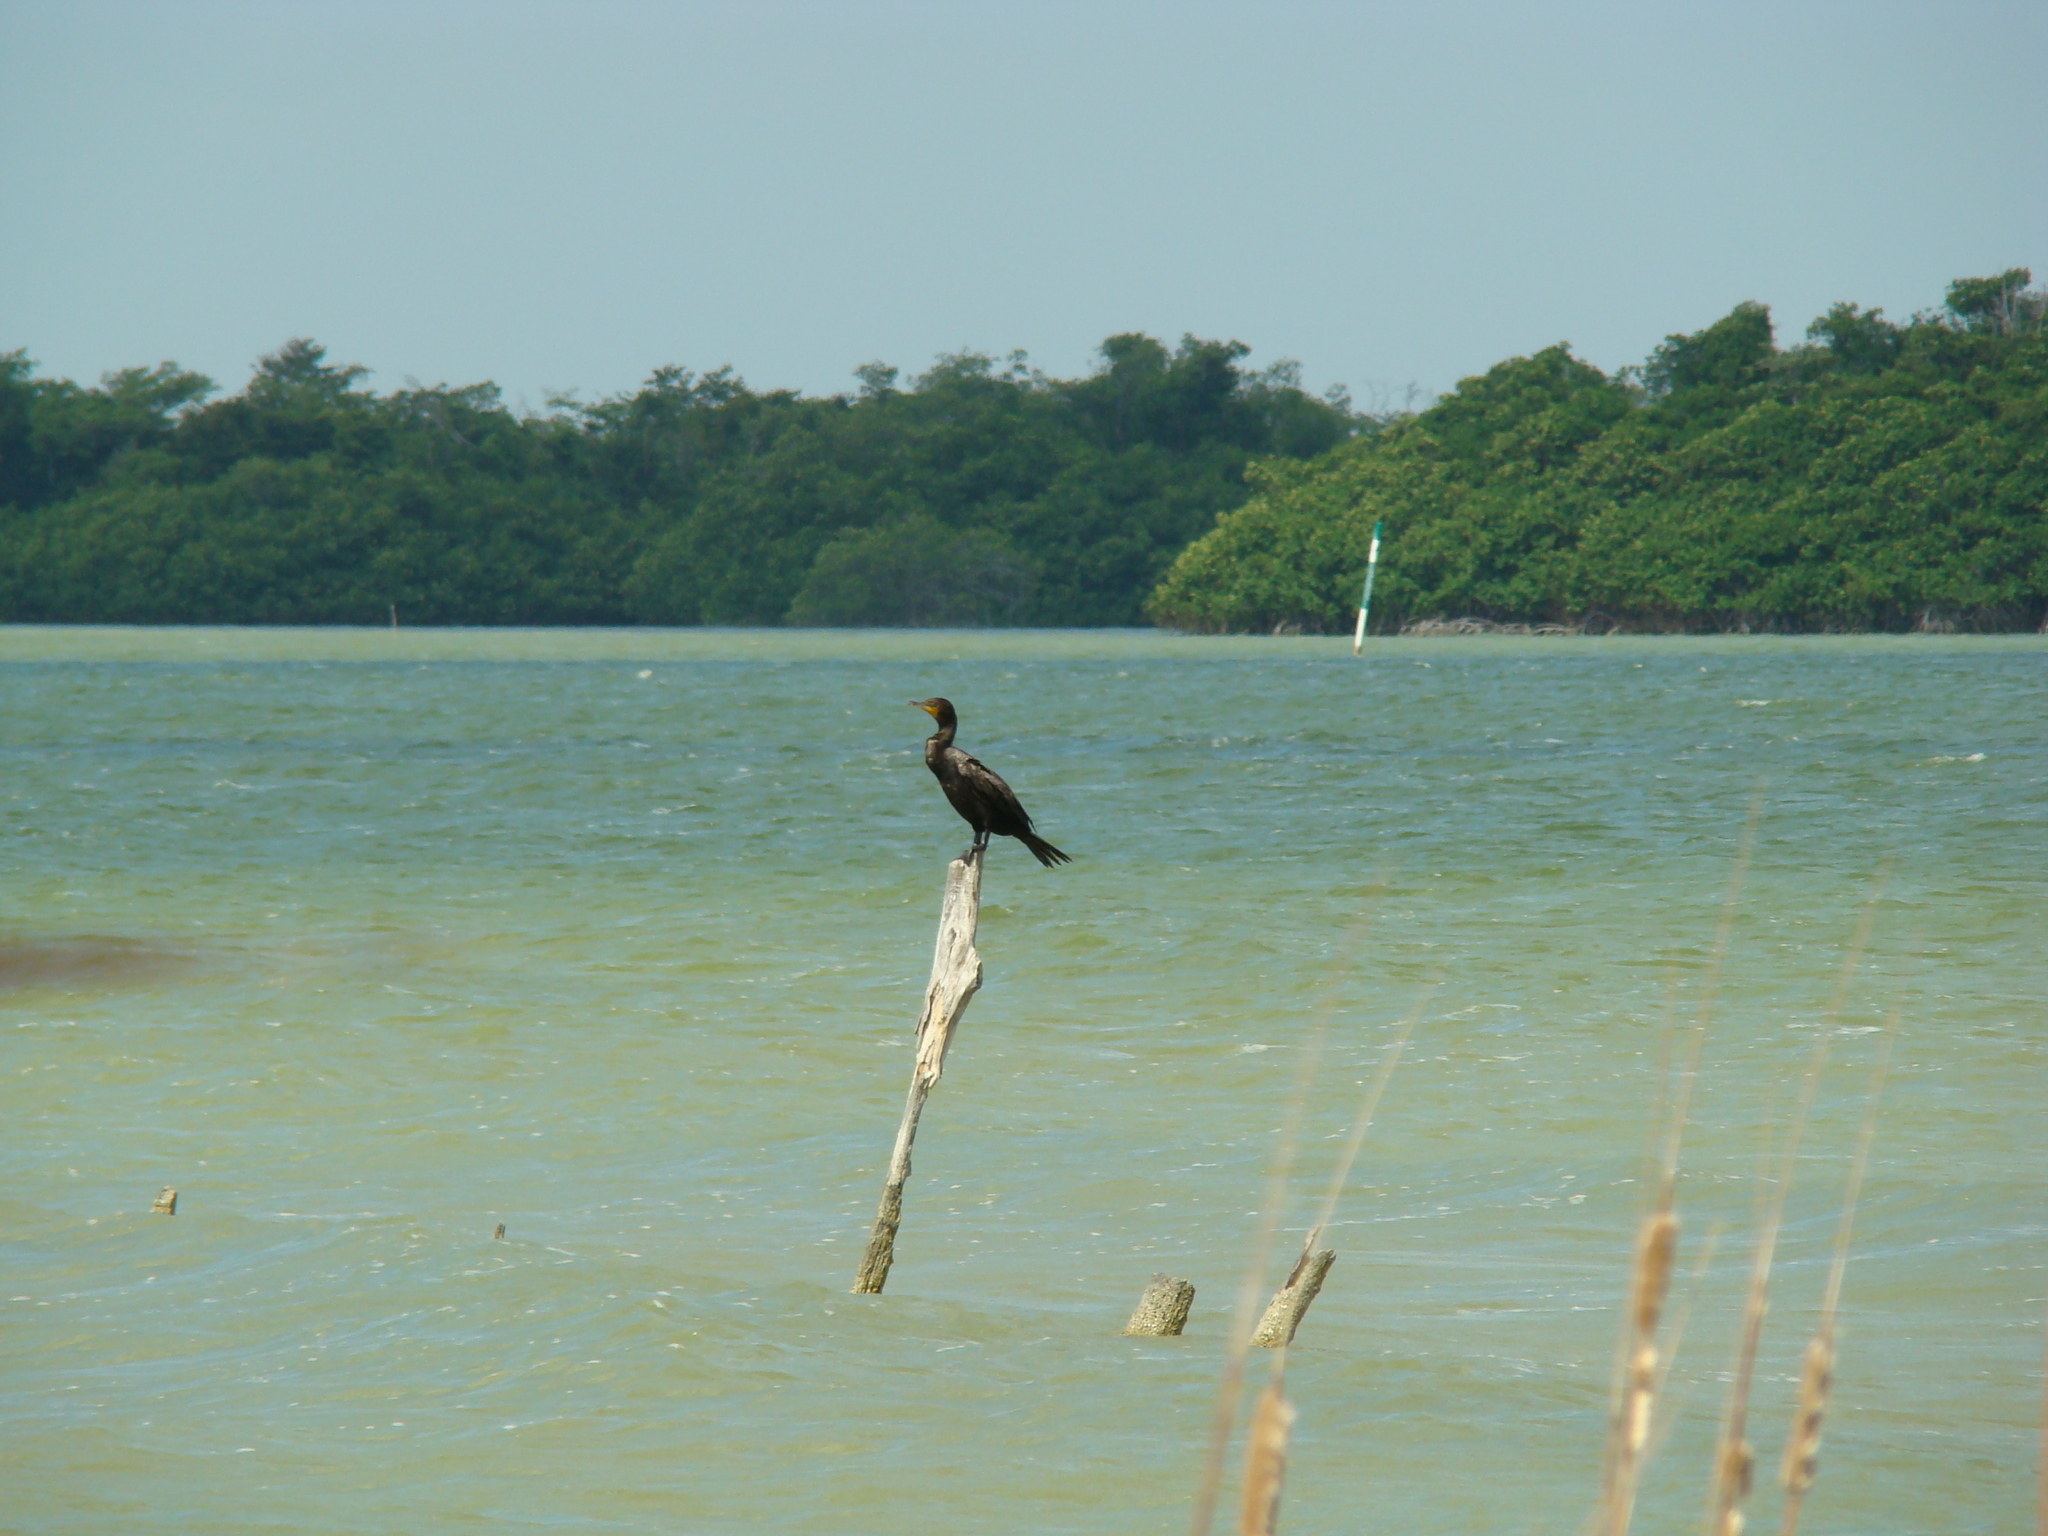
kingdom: Animalia
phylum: Chordata
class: Aves
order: Suliformes
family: Phalacrocoracidae
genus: Phalacrocorax
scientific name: Phalacrocorax auritus
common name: Double-crested cormorant
